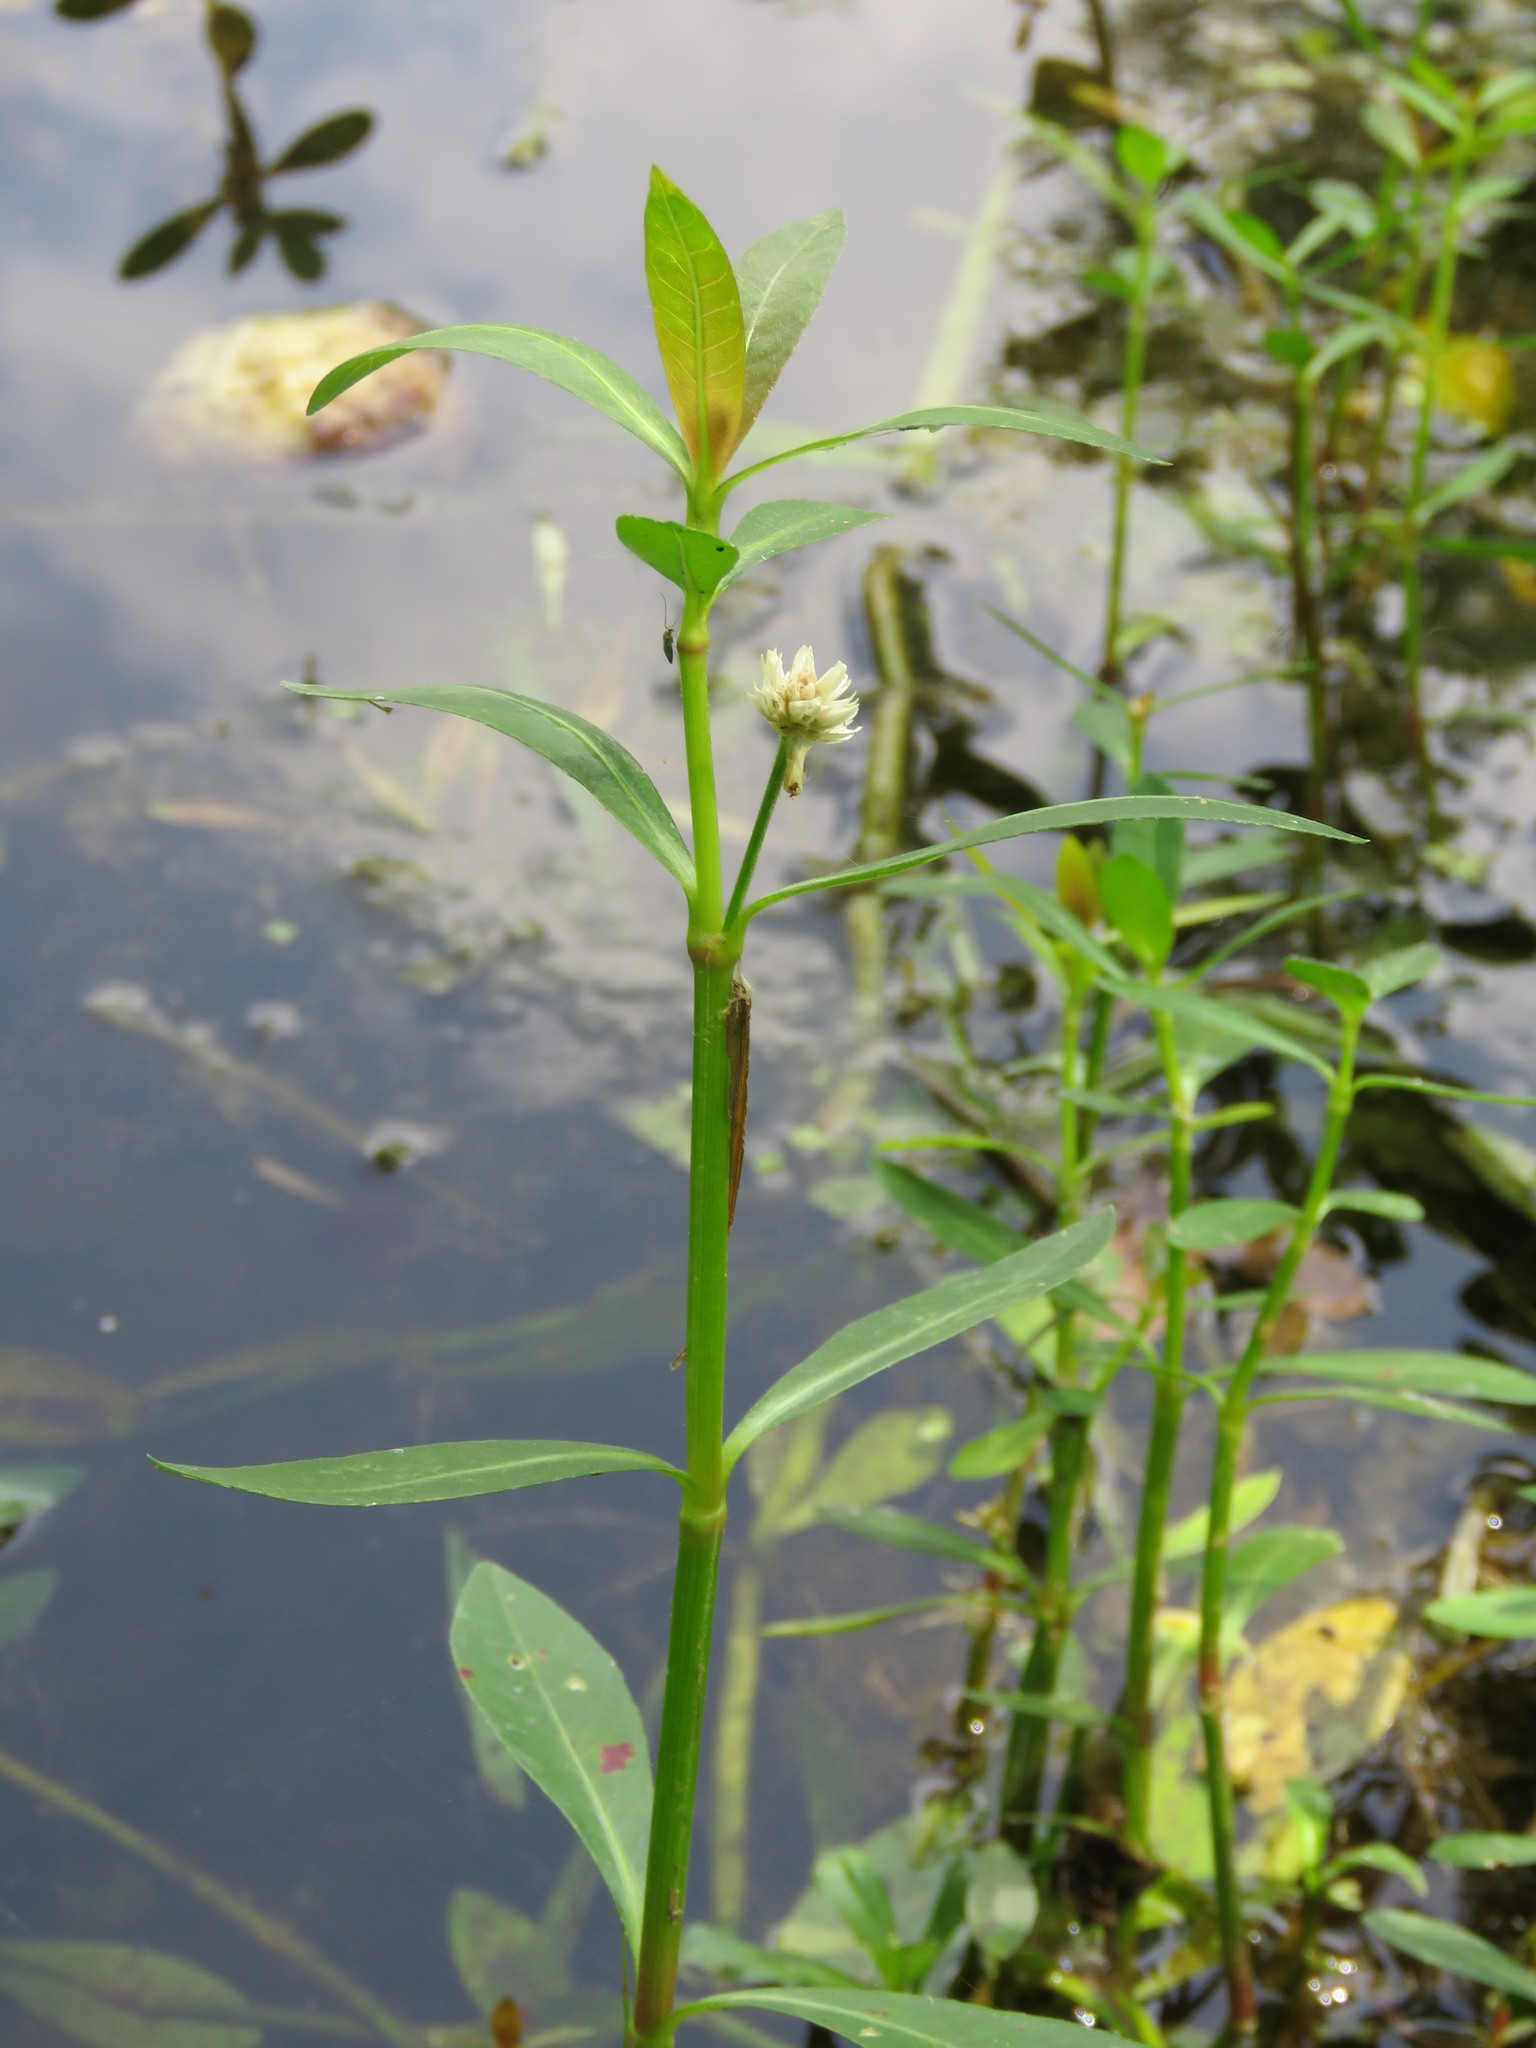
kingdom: Plantae
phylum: Tracheophyta
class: Magnoliopsida
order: Caryophyllales
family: Amaranthaceae
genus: Alternanthera
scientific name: Alternanthera philoxeroides
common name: Alligatorweed
